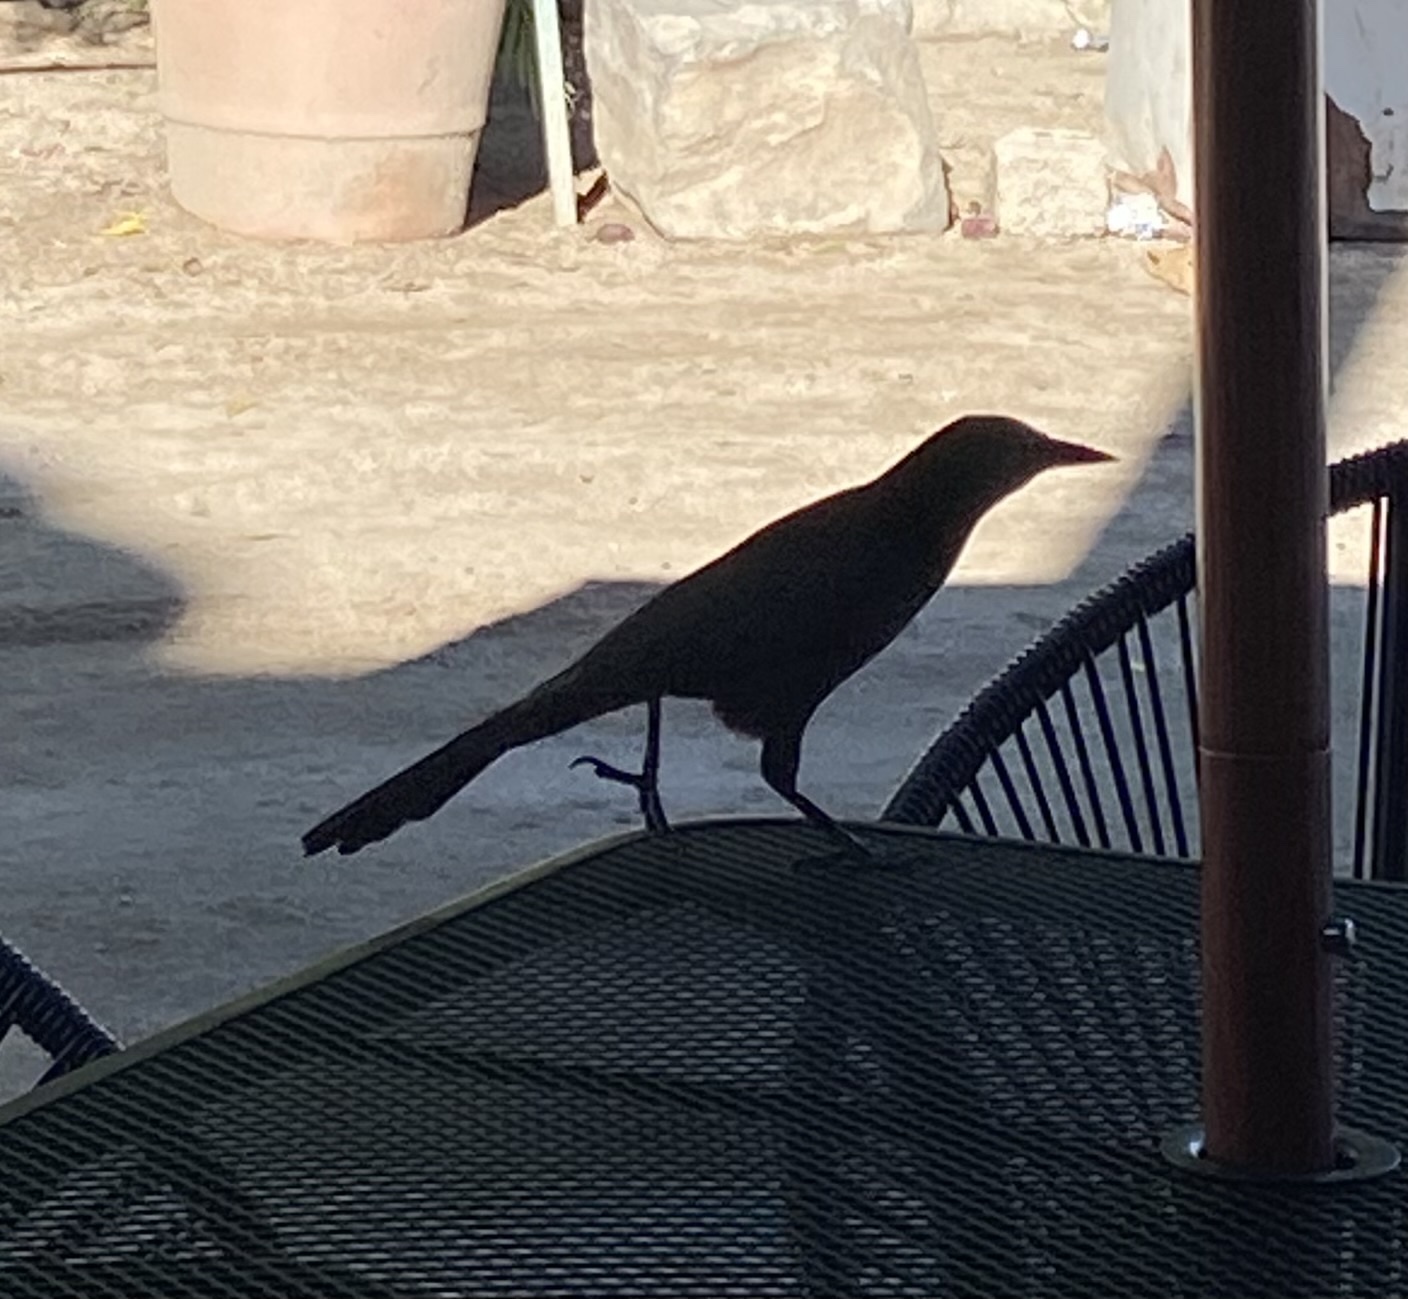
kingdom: Animalia
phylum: Chordata
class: Aves
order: Passeriformes
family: Icteridae
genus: Quiscalus
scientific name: Quiscalus mexicanus
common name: Great-tailed grackle
